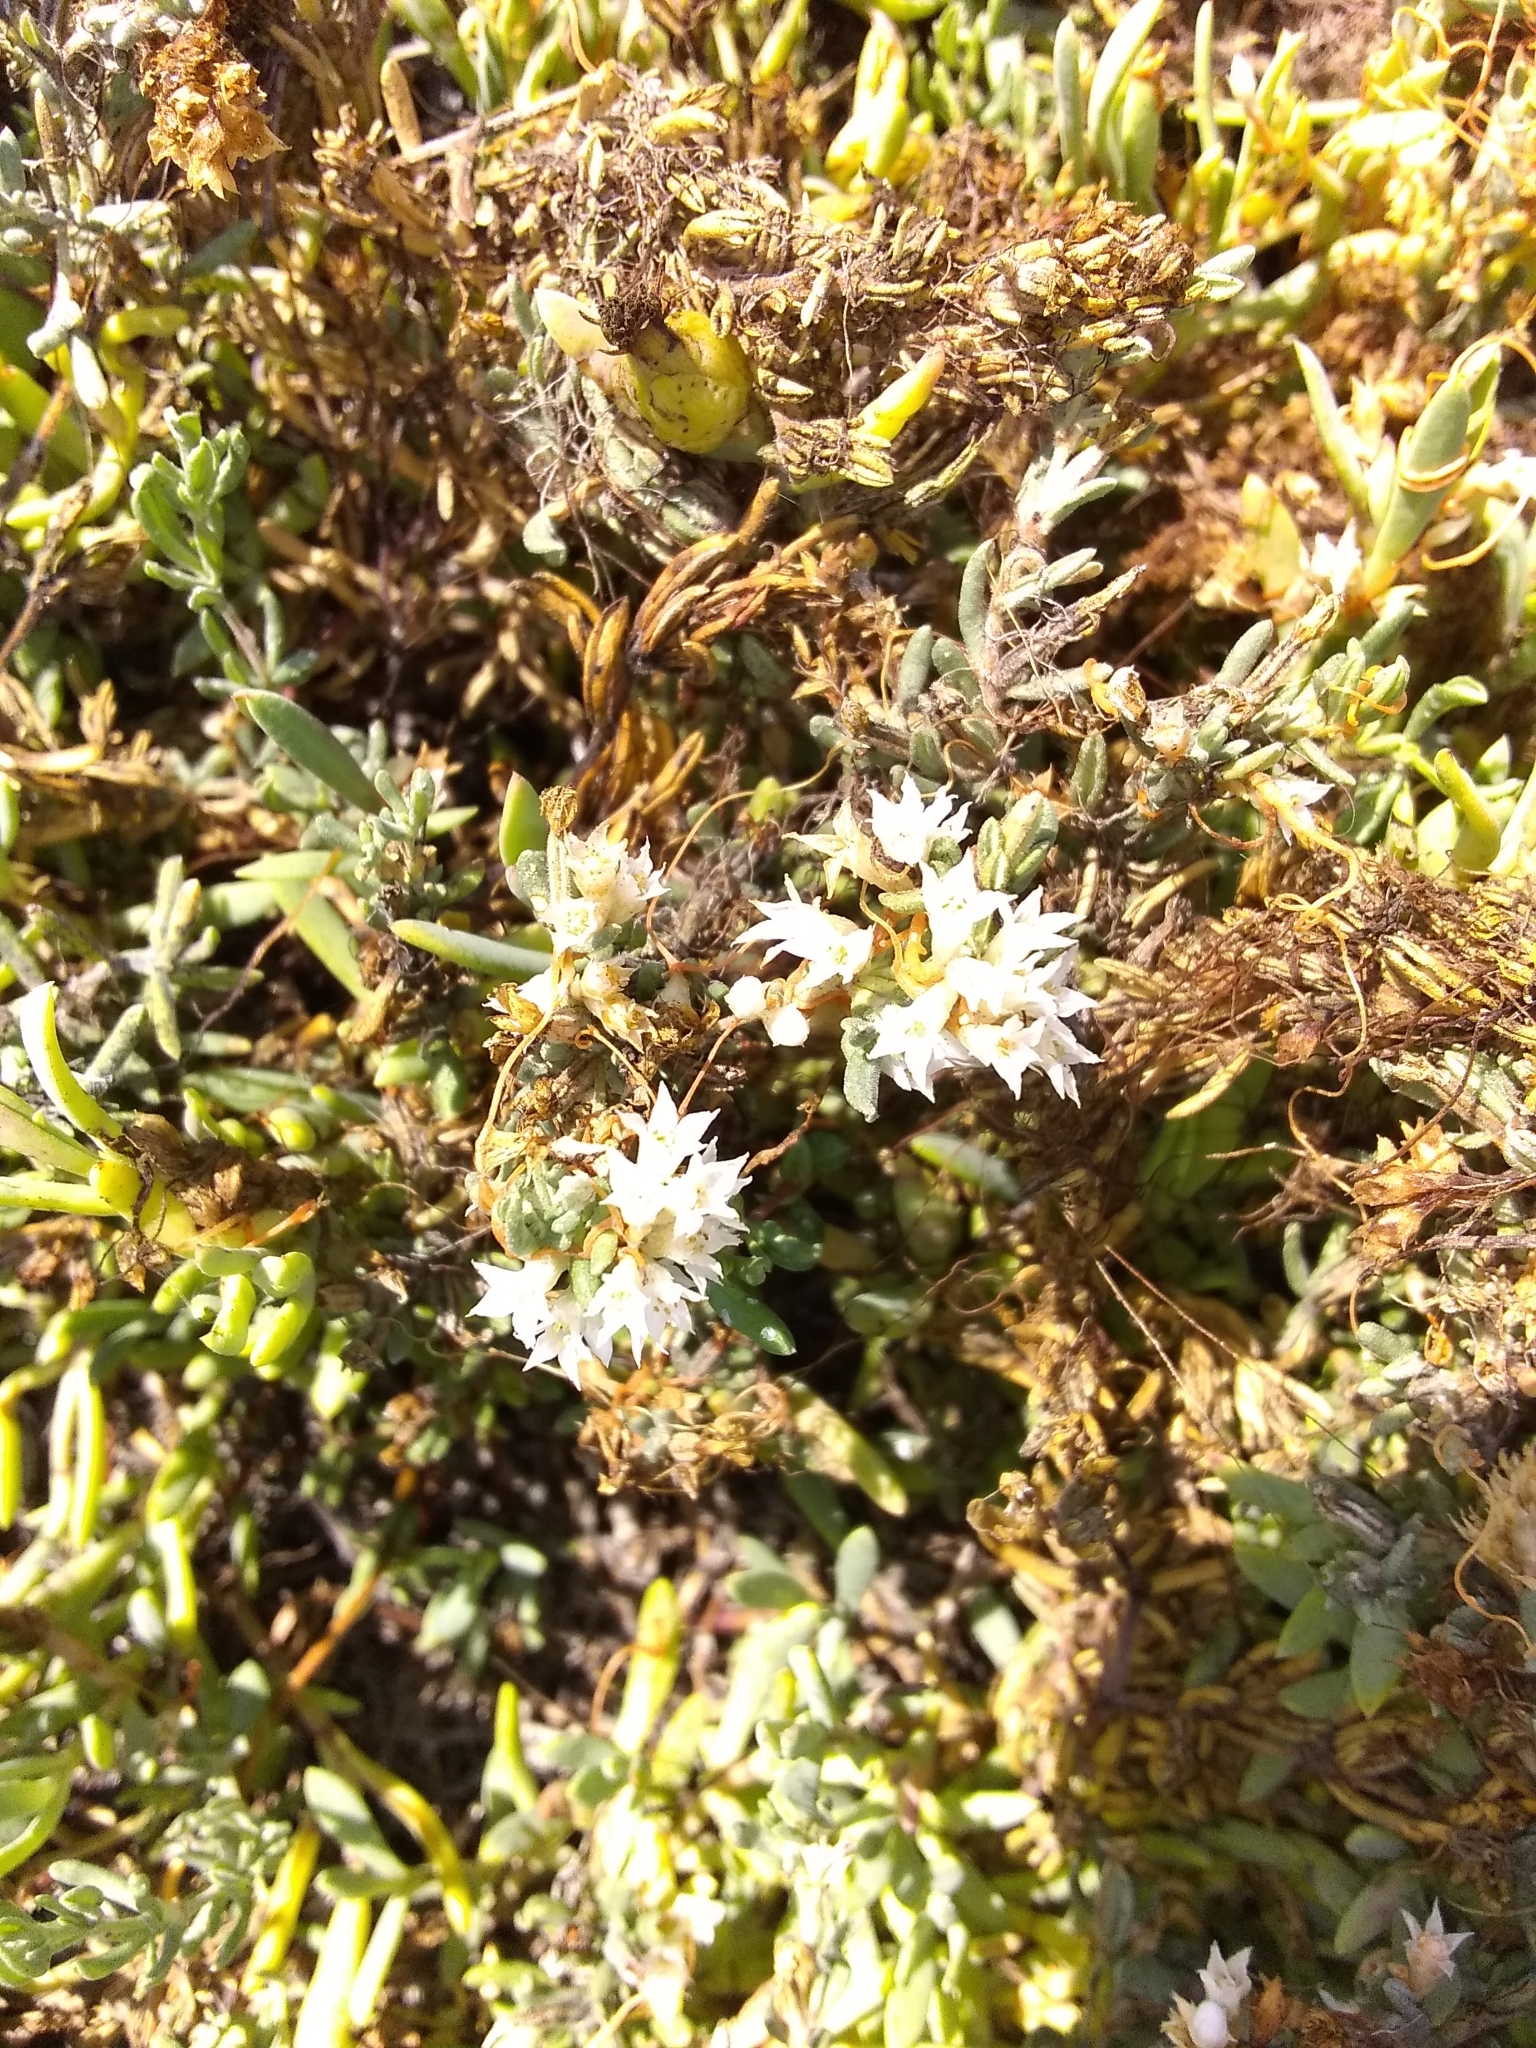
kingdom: Plantae
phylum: Tracheophyta
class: Magnoliopsida
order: Solanales
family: Convolvulaceae
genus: Cuscuta
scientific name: Cuscuta pacifica
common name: Large saltmarsh dodder
